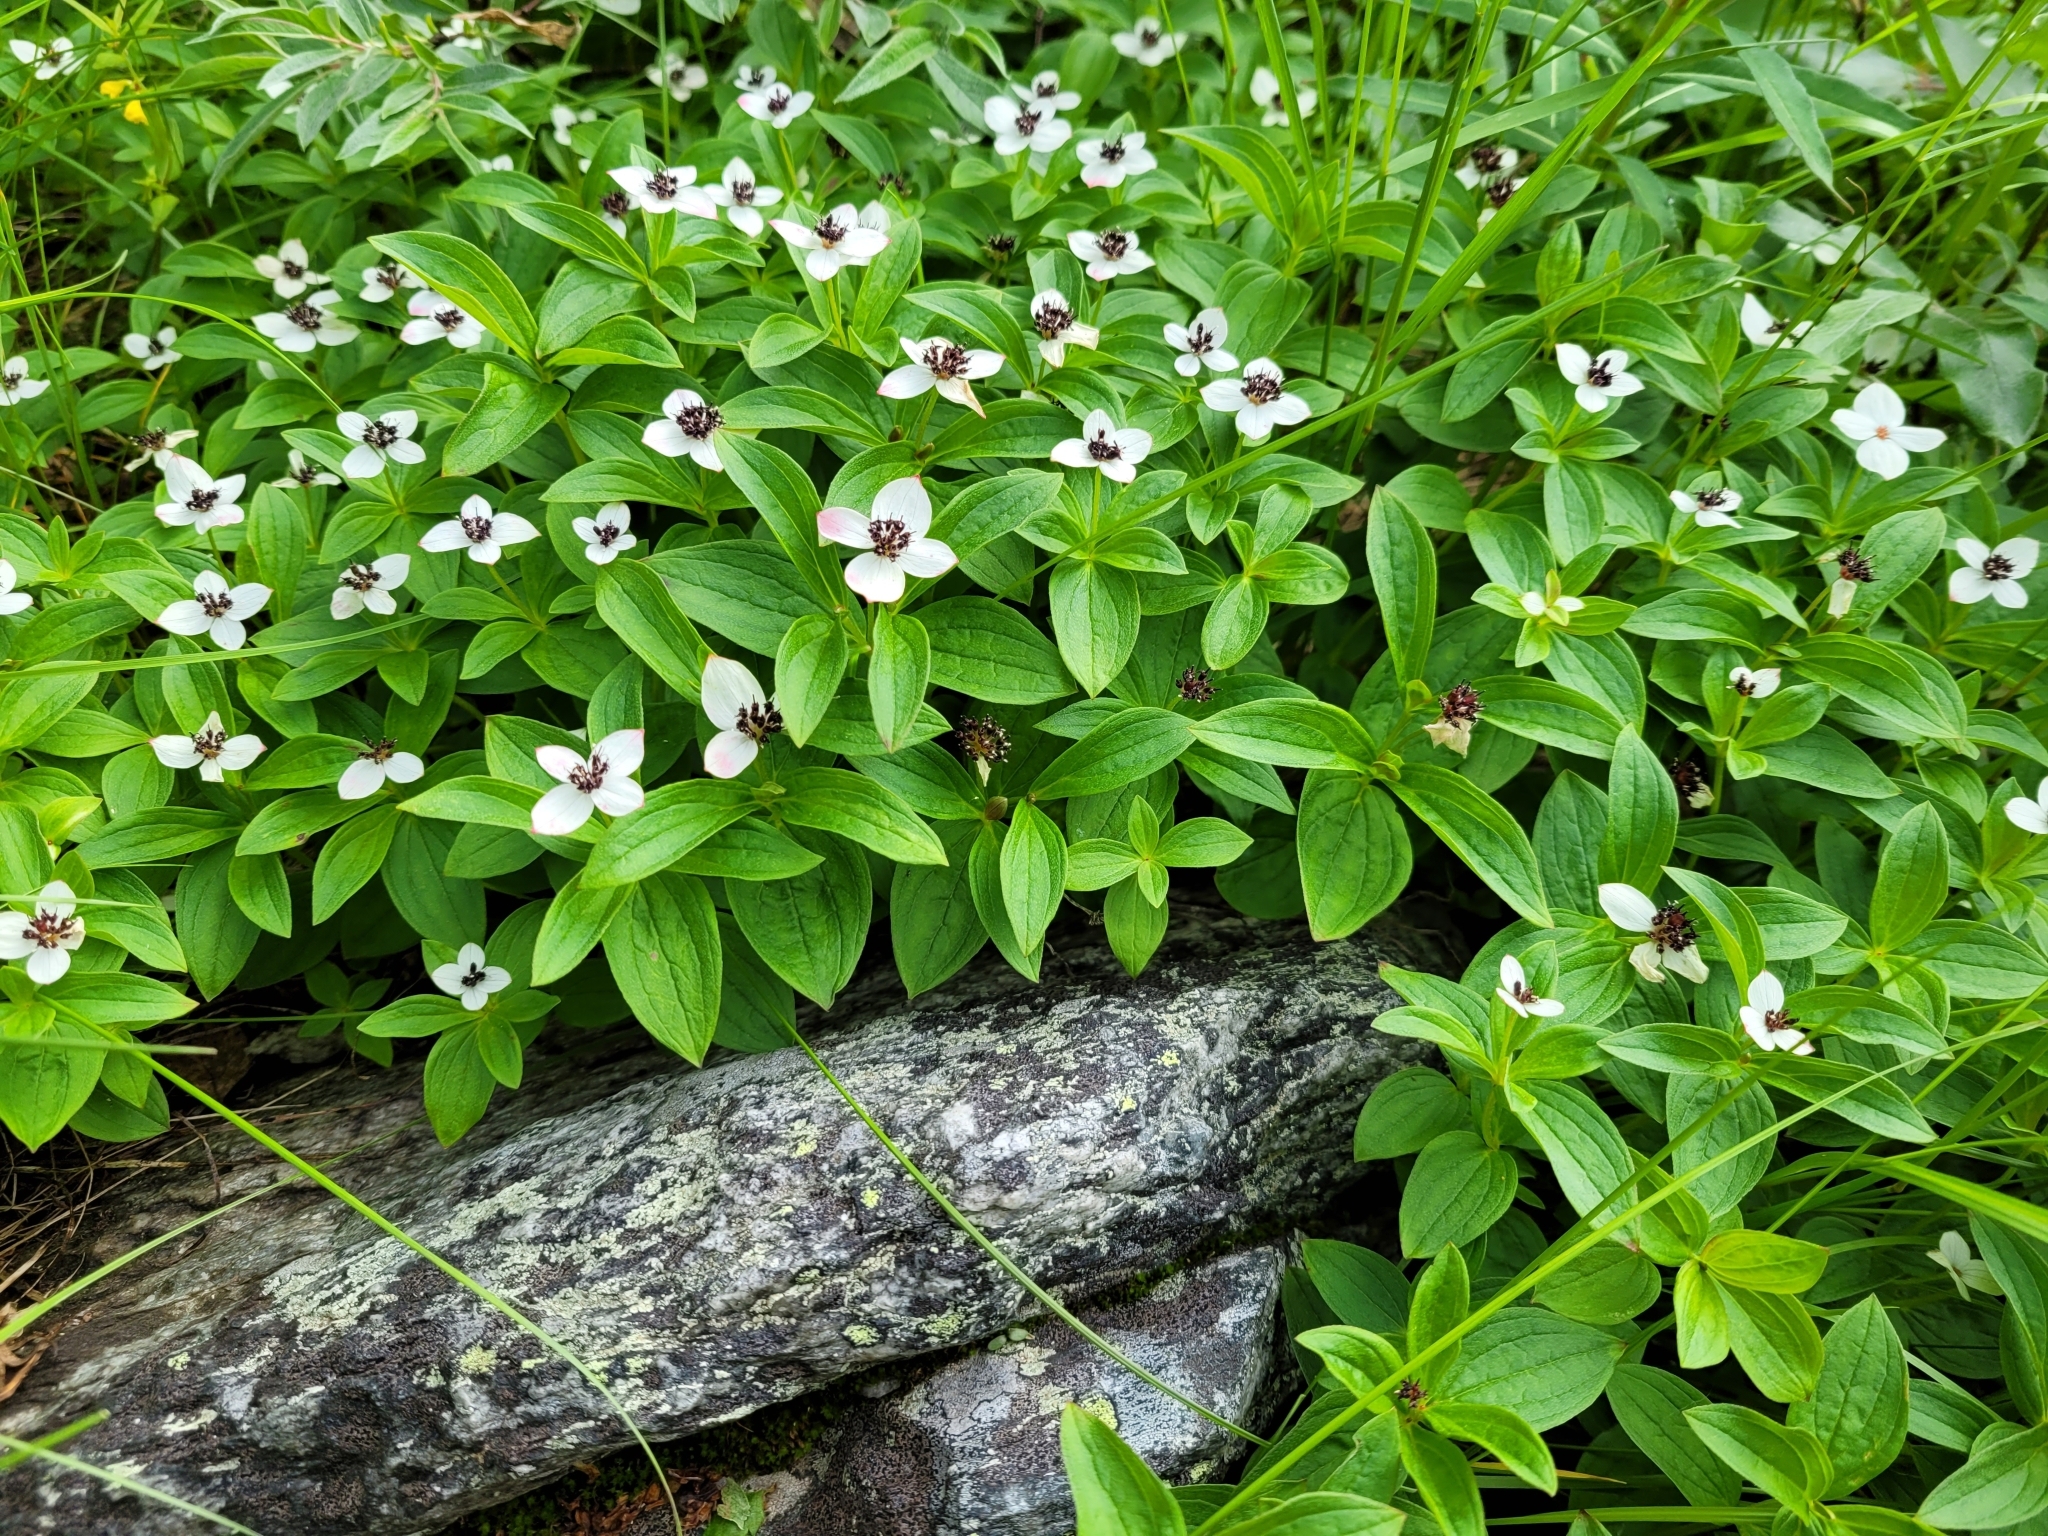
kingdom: Plantae
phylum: Tracheophyta
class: Magnoliopsida
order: Cornales
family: Cornaceae
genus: Cornus
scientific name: Cornus suecica
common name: Dwarf cornel
